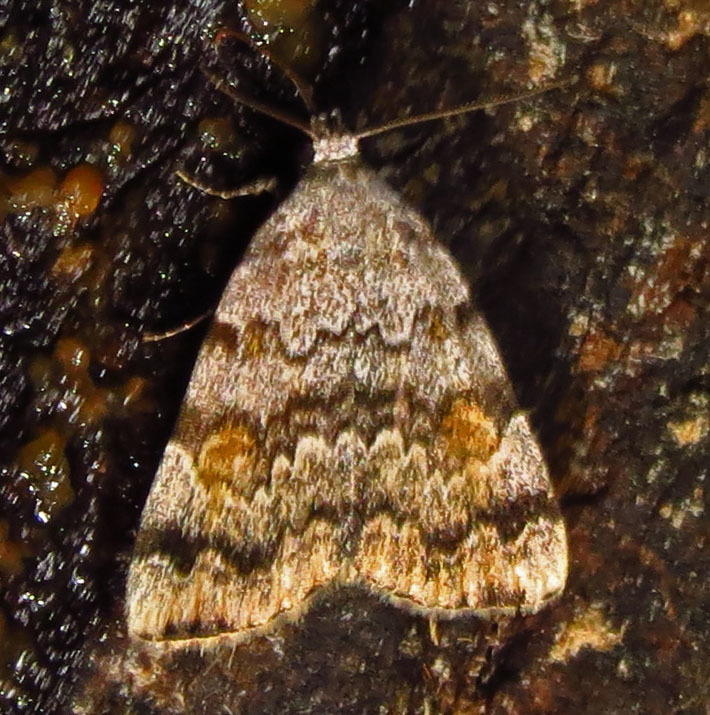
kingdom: Animalia
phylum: Arthropoda
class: Insecta
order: Lepidoptera
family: Erebidae
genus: Idia
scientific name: Idia americalis
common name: American idia moth
